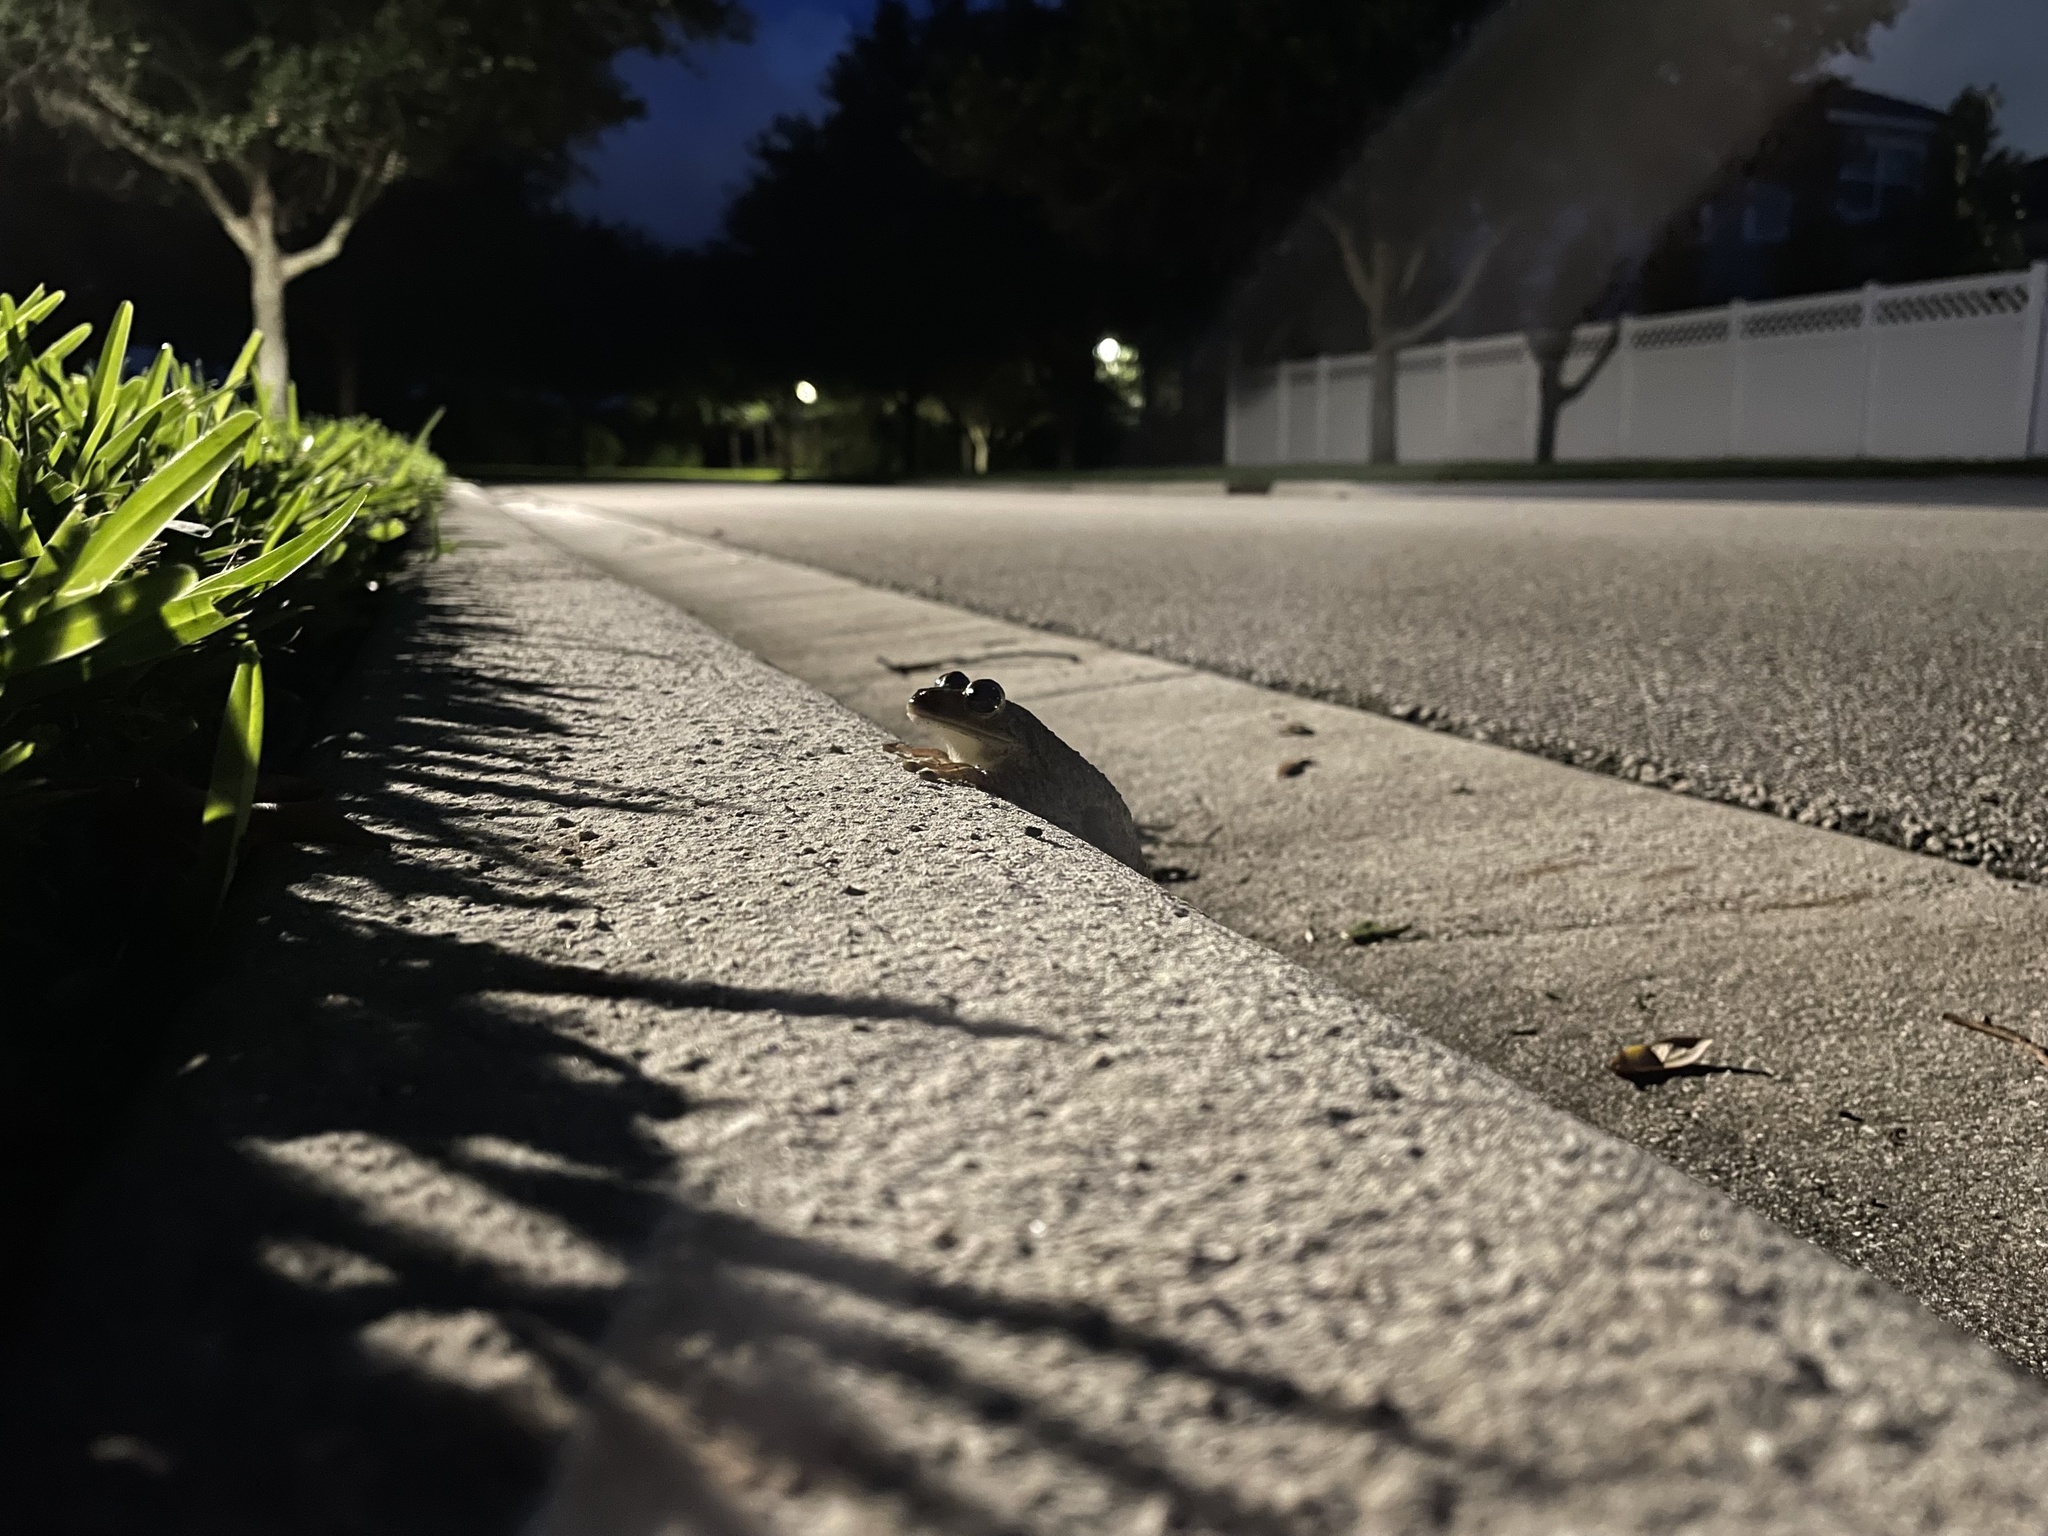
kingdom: Animalia
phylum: Chordata
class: Amphibia
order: Anura
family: Hylidae
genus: Osteopilus
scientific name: Osteopilus septentrionalis
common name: Cuban treefrog
